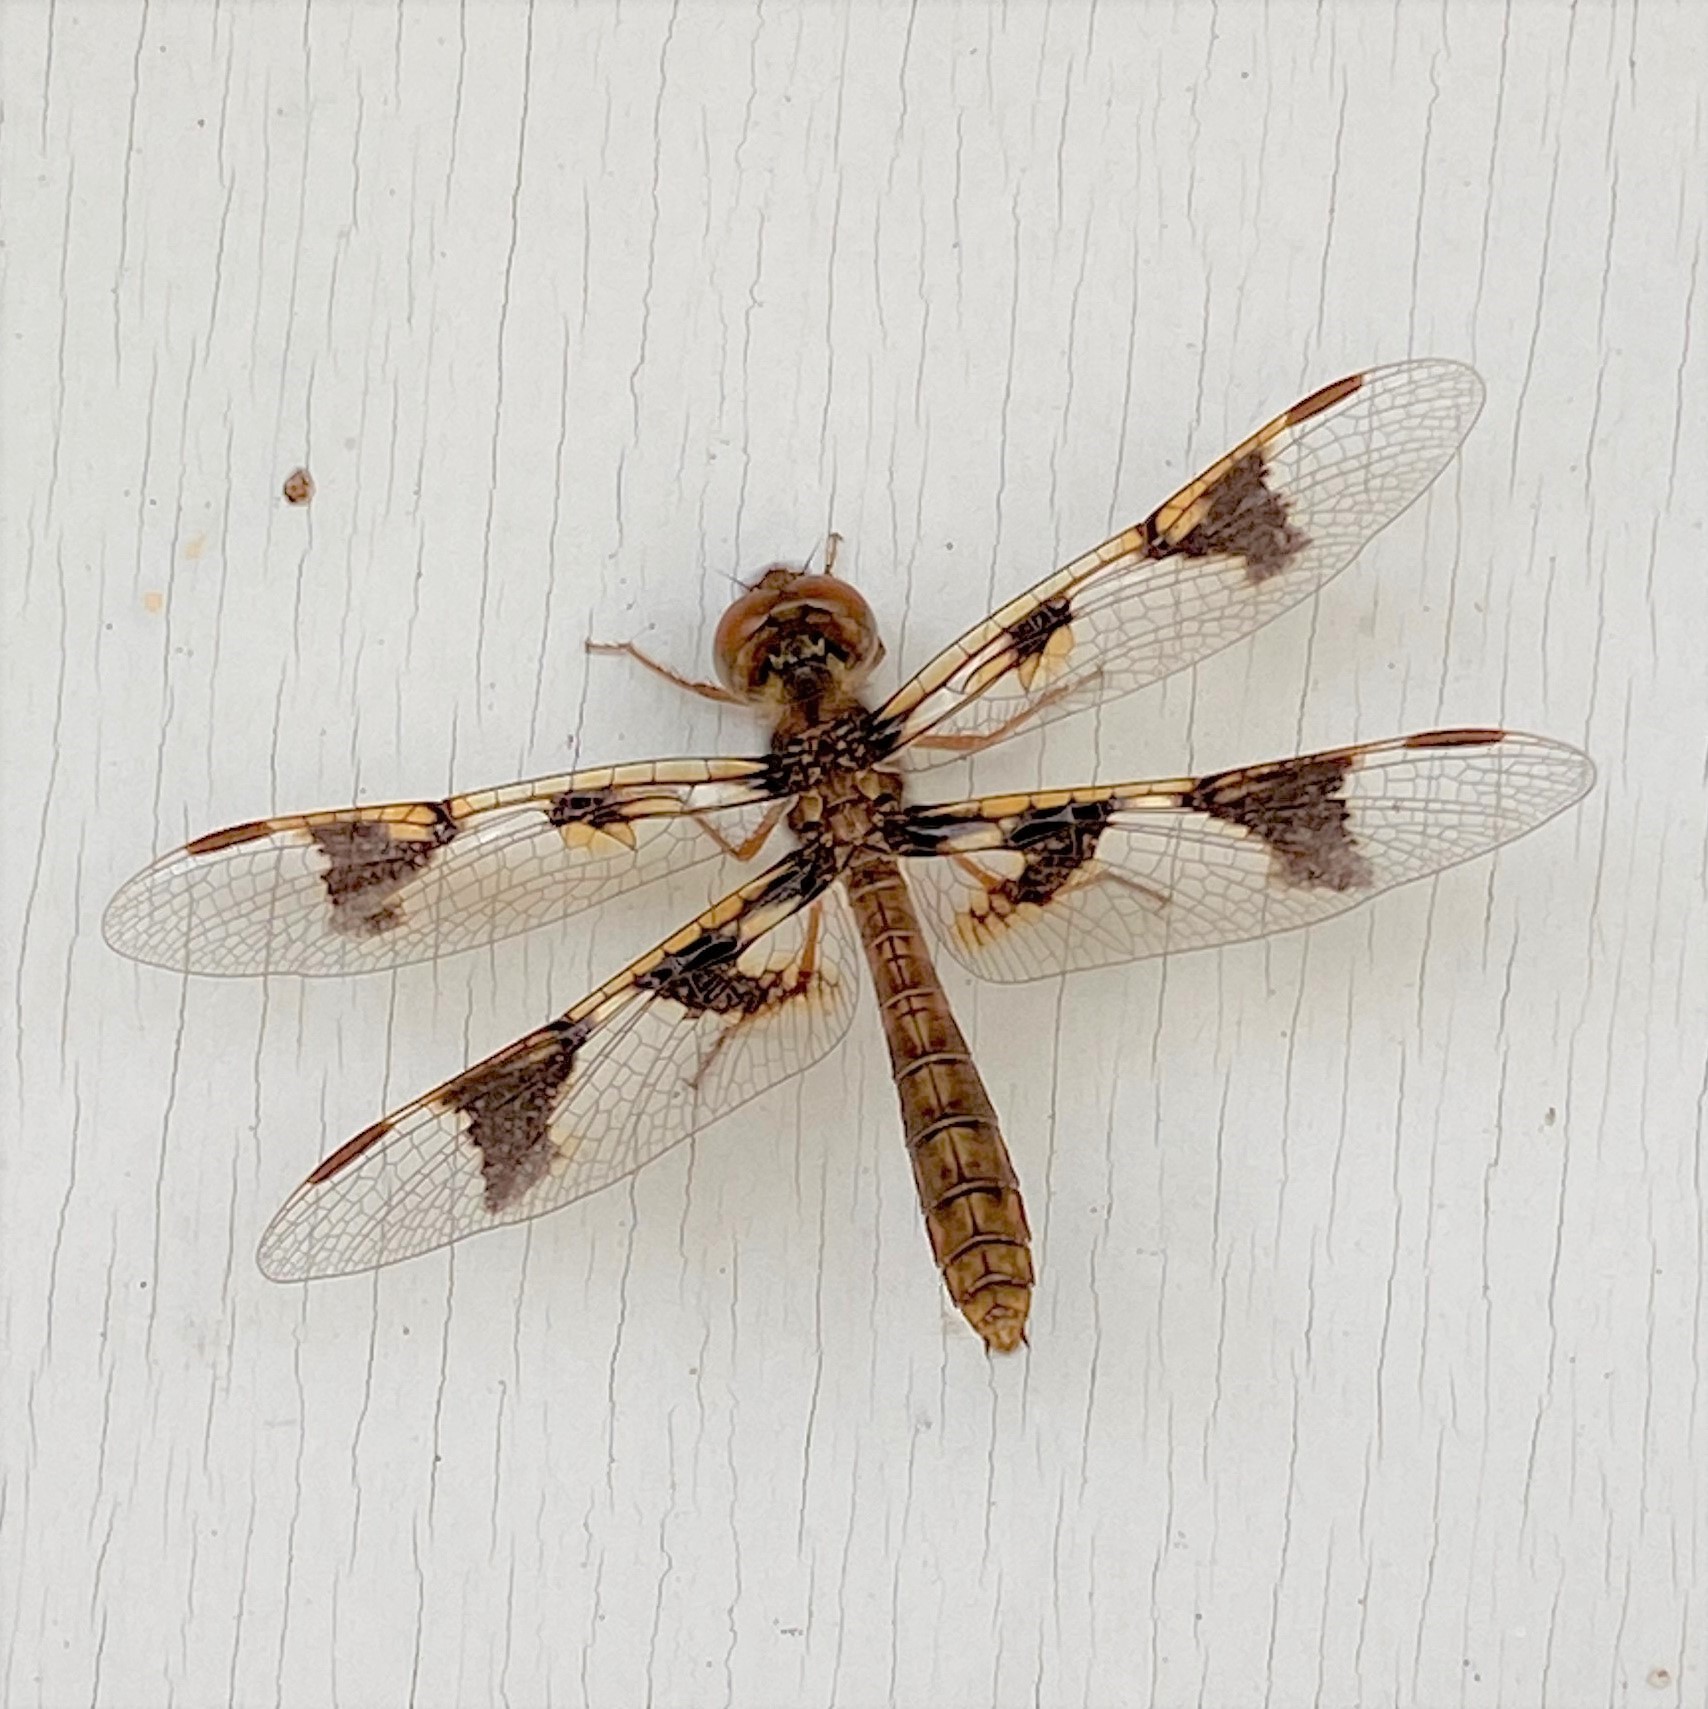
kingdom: Animalia
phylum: Arthropoda
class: Insecta
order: Odonata
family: Libellulidae
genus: Perithemis
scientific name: Perithemis tenera
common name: Eastern amberwing
